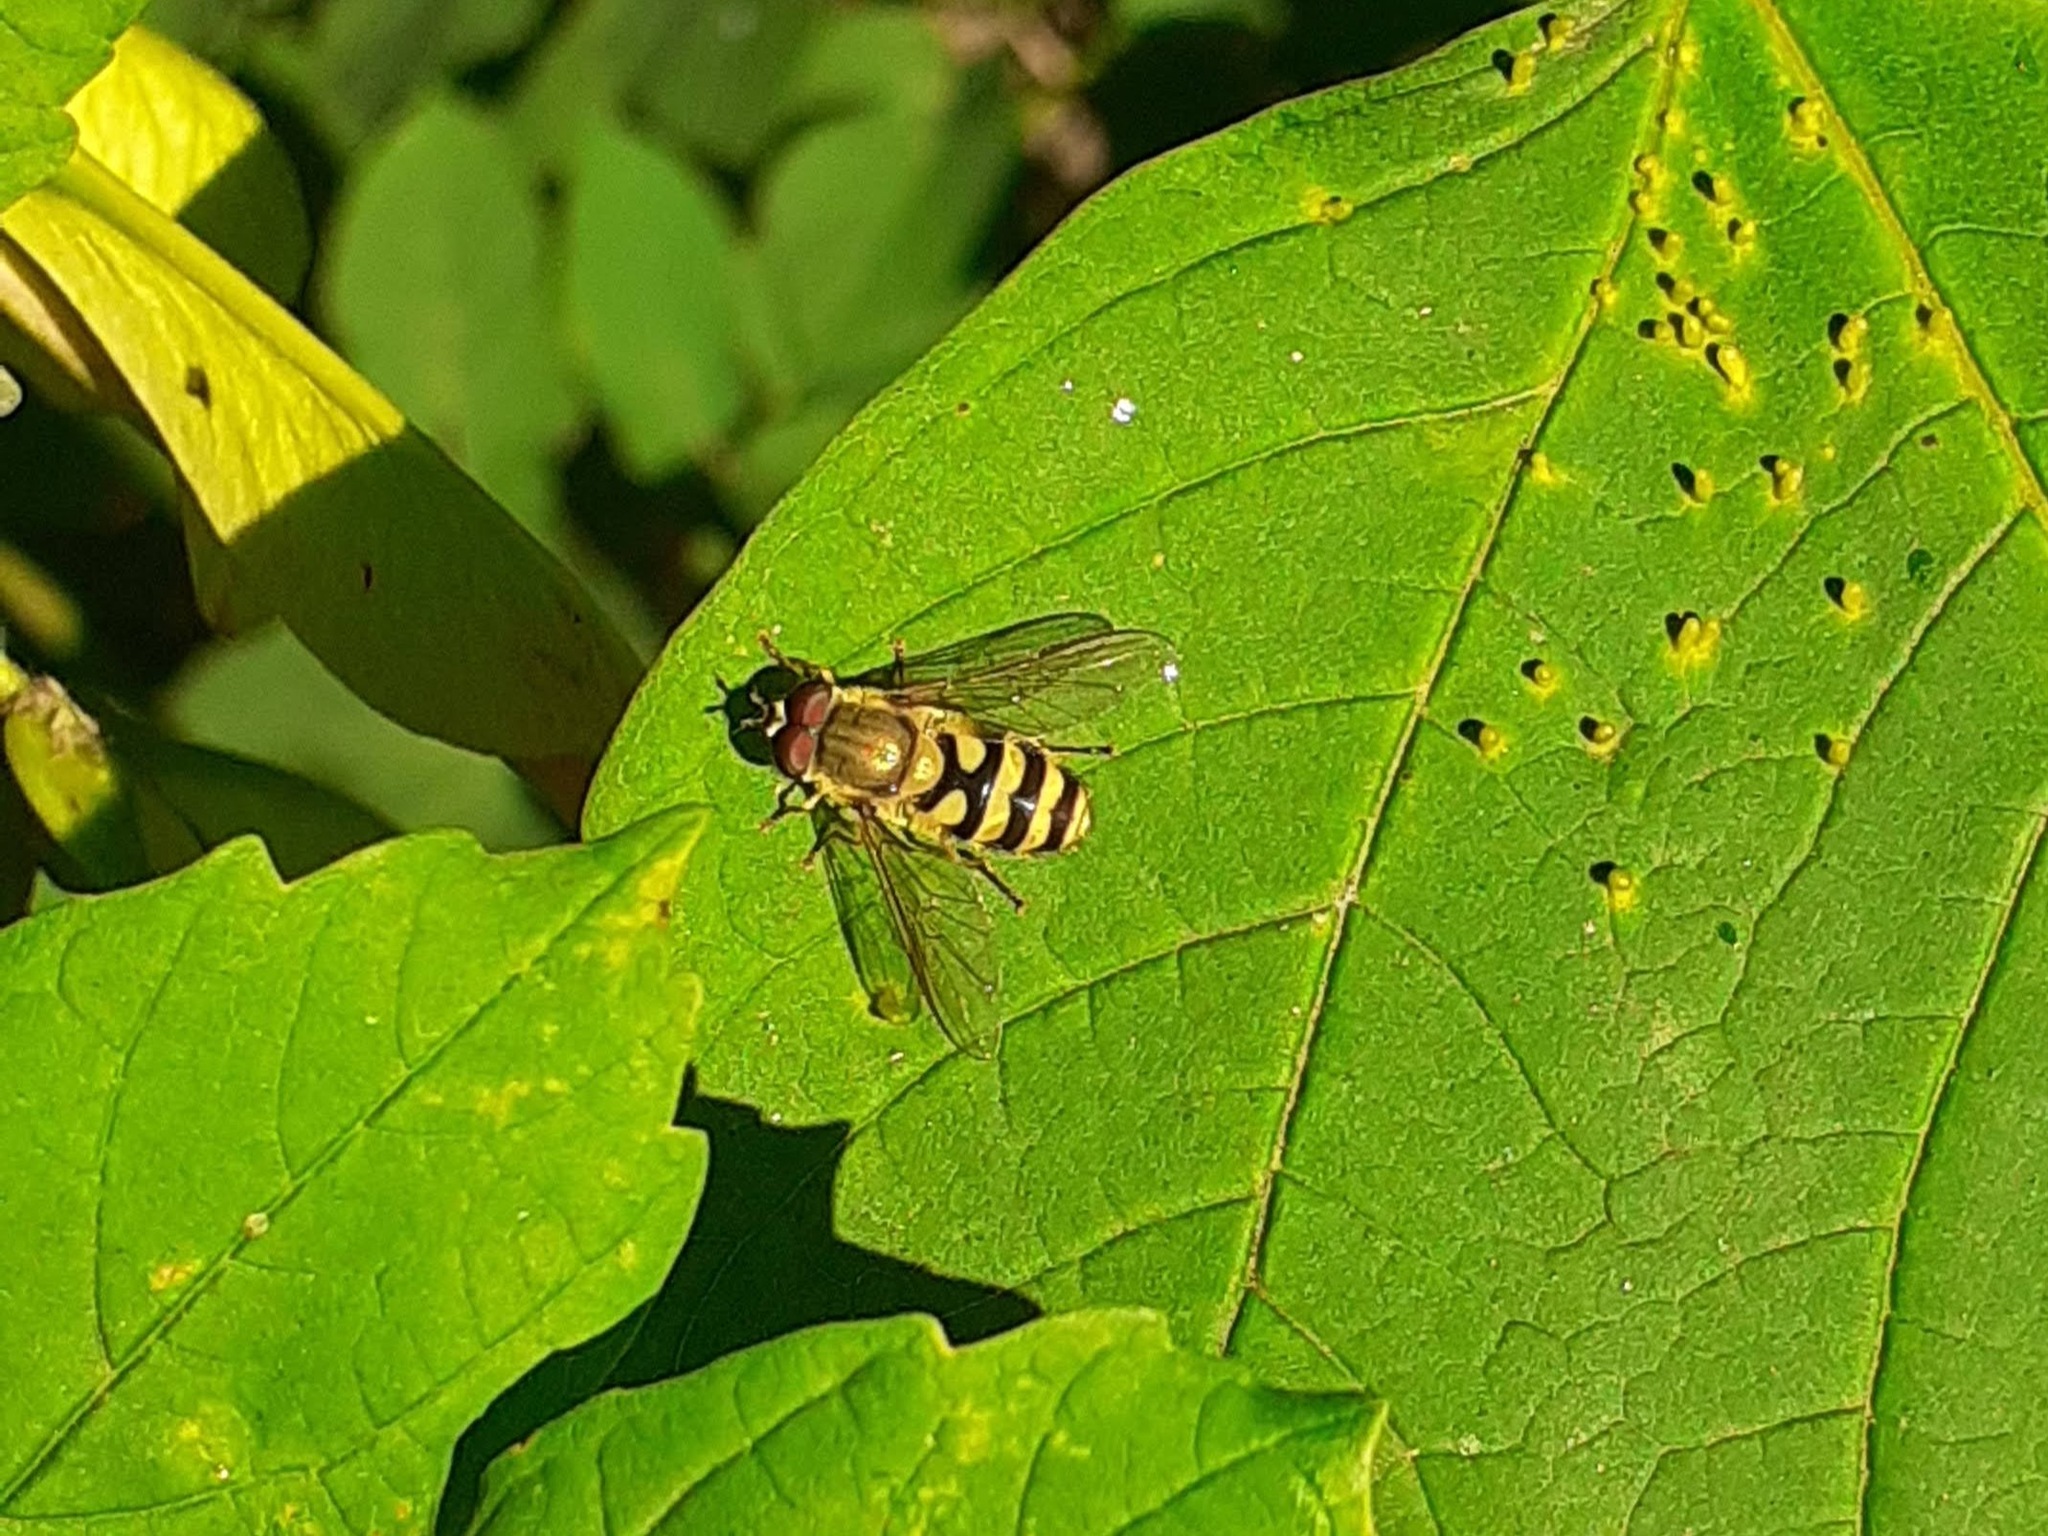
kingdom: Animalia
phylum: Arthropoda
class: Insecta
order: Diptera
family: Syrphidae
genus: Syrphus
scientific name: Syrphus
